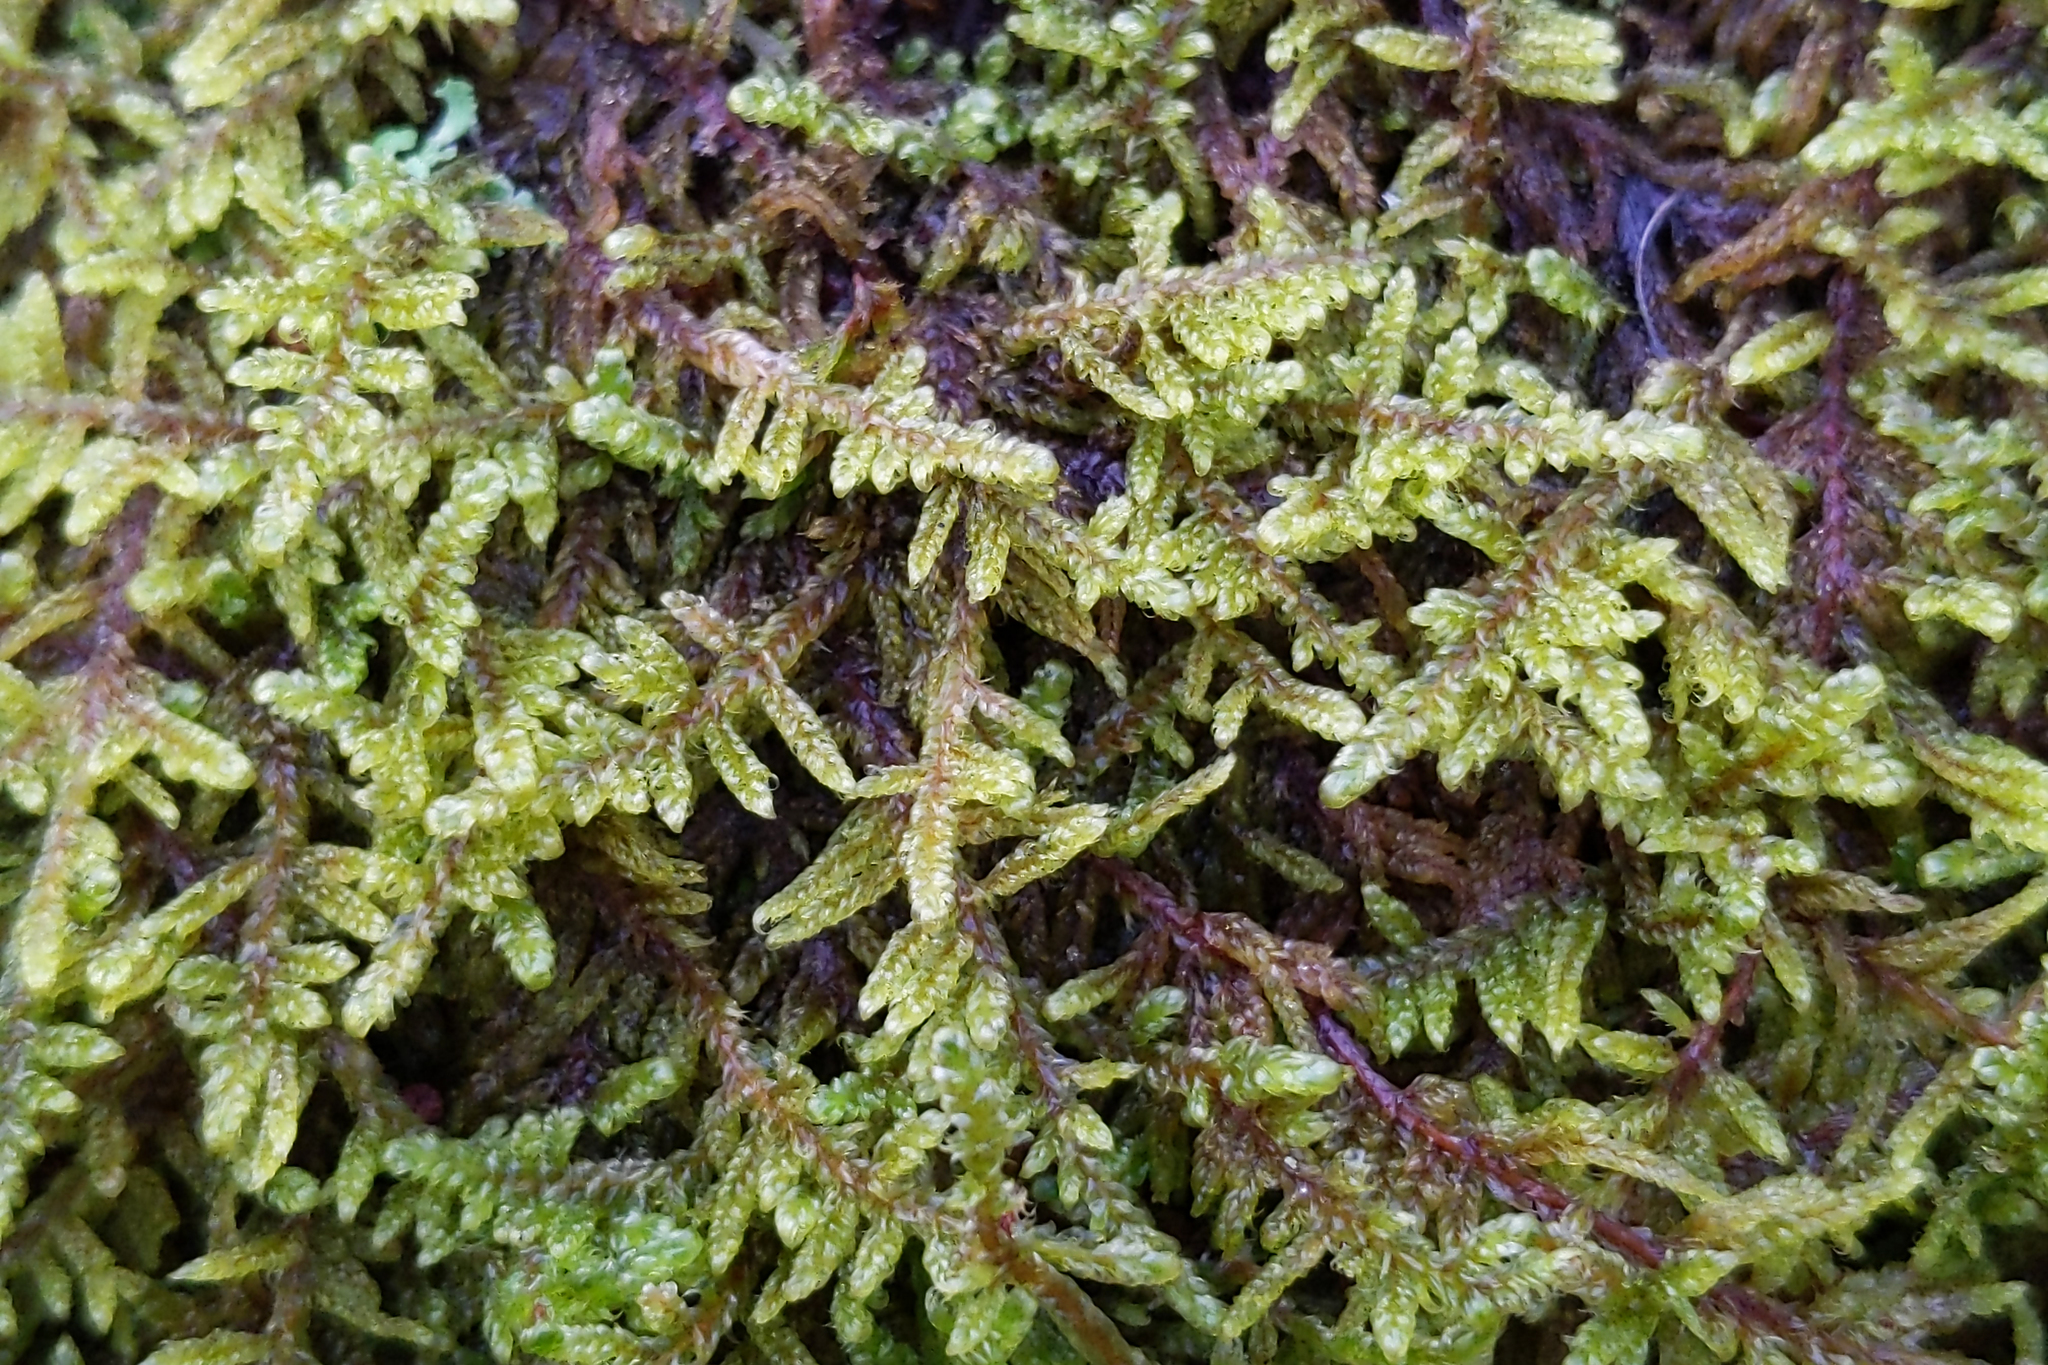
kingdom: Plantae
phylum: Bryophyta
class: Bryopsida
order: Hypnales
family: Callicladiaceae
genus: Callicladium
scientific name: Callicladium imponens
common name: Brocade moss
